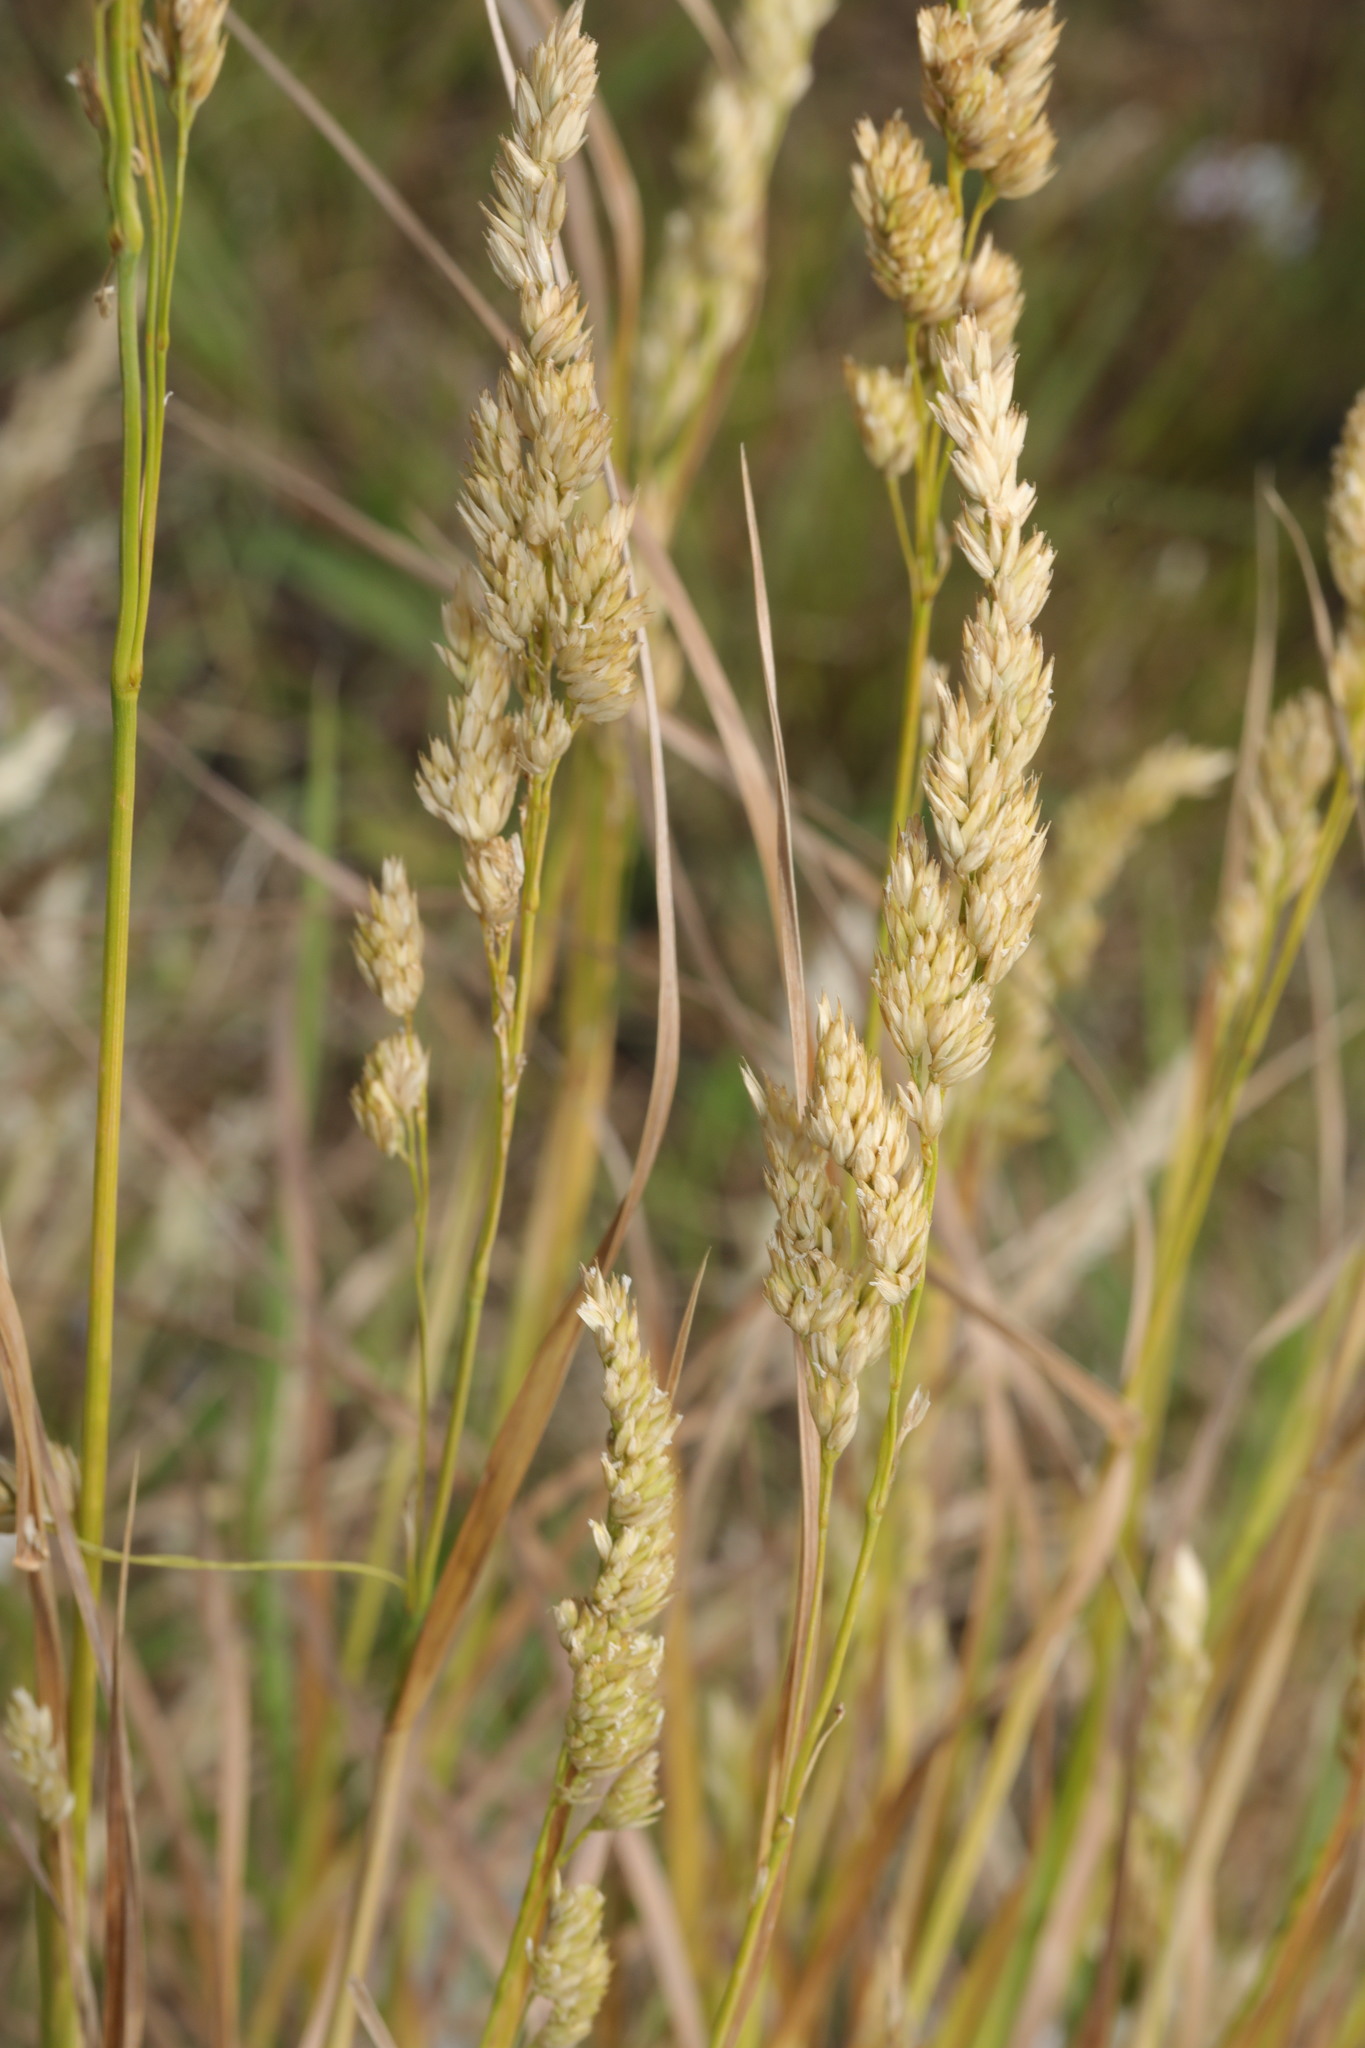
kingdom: Plantae
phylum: Tracheophyta
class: Liliopsida
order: Poales
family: Poaceae
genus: Dactylis
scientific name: Dactylis glomerata
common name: Orchardgrass
